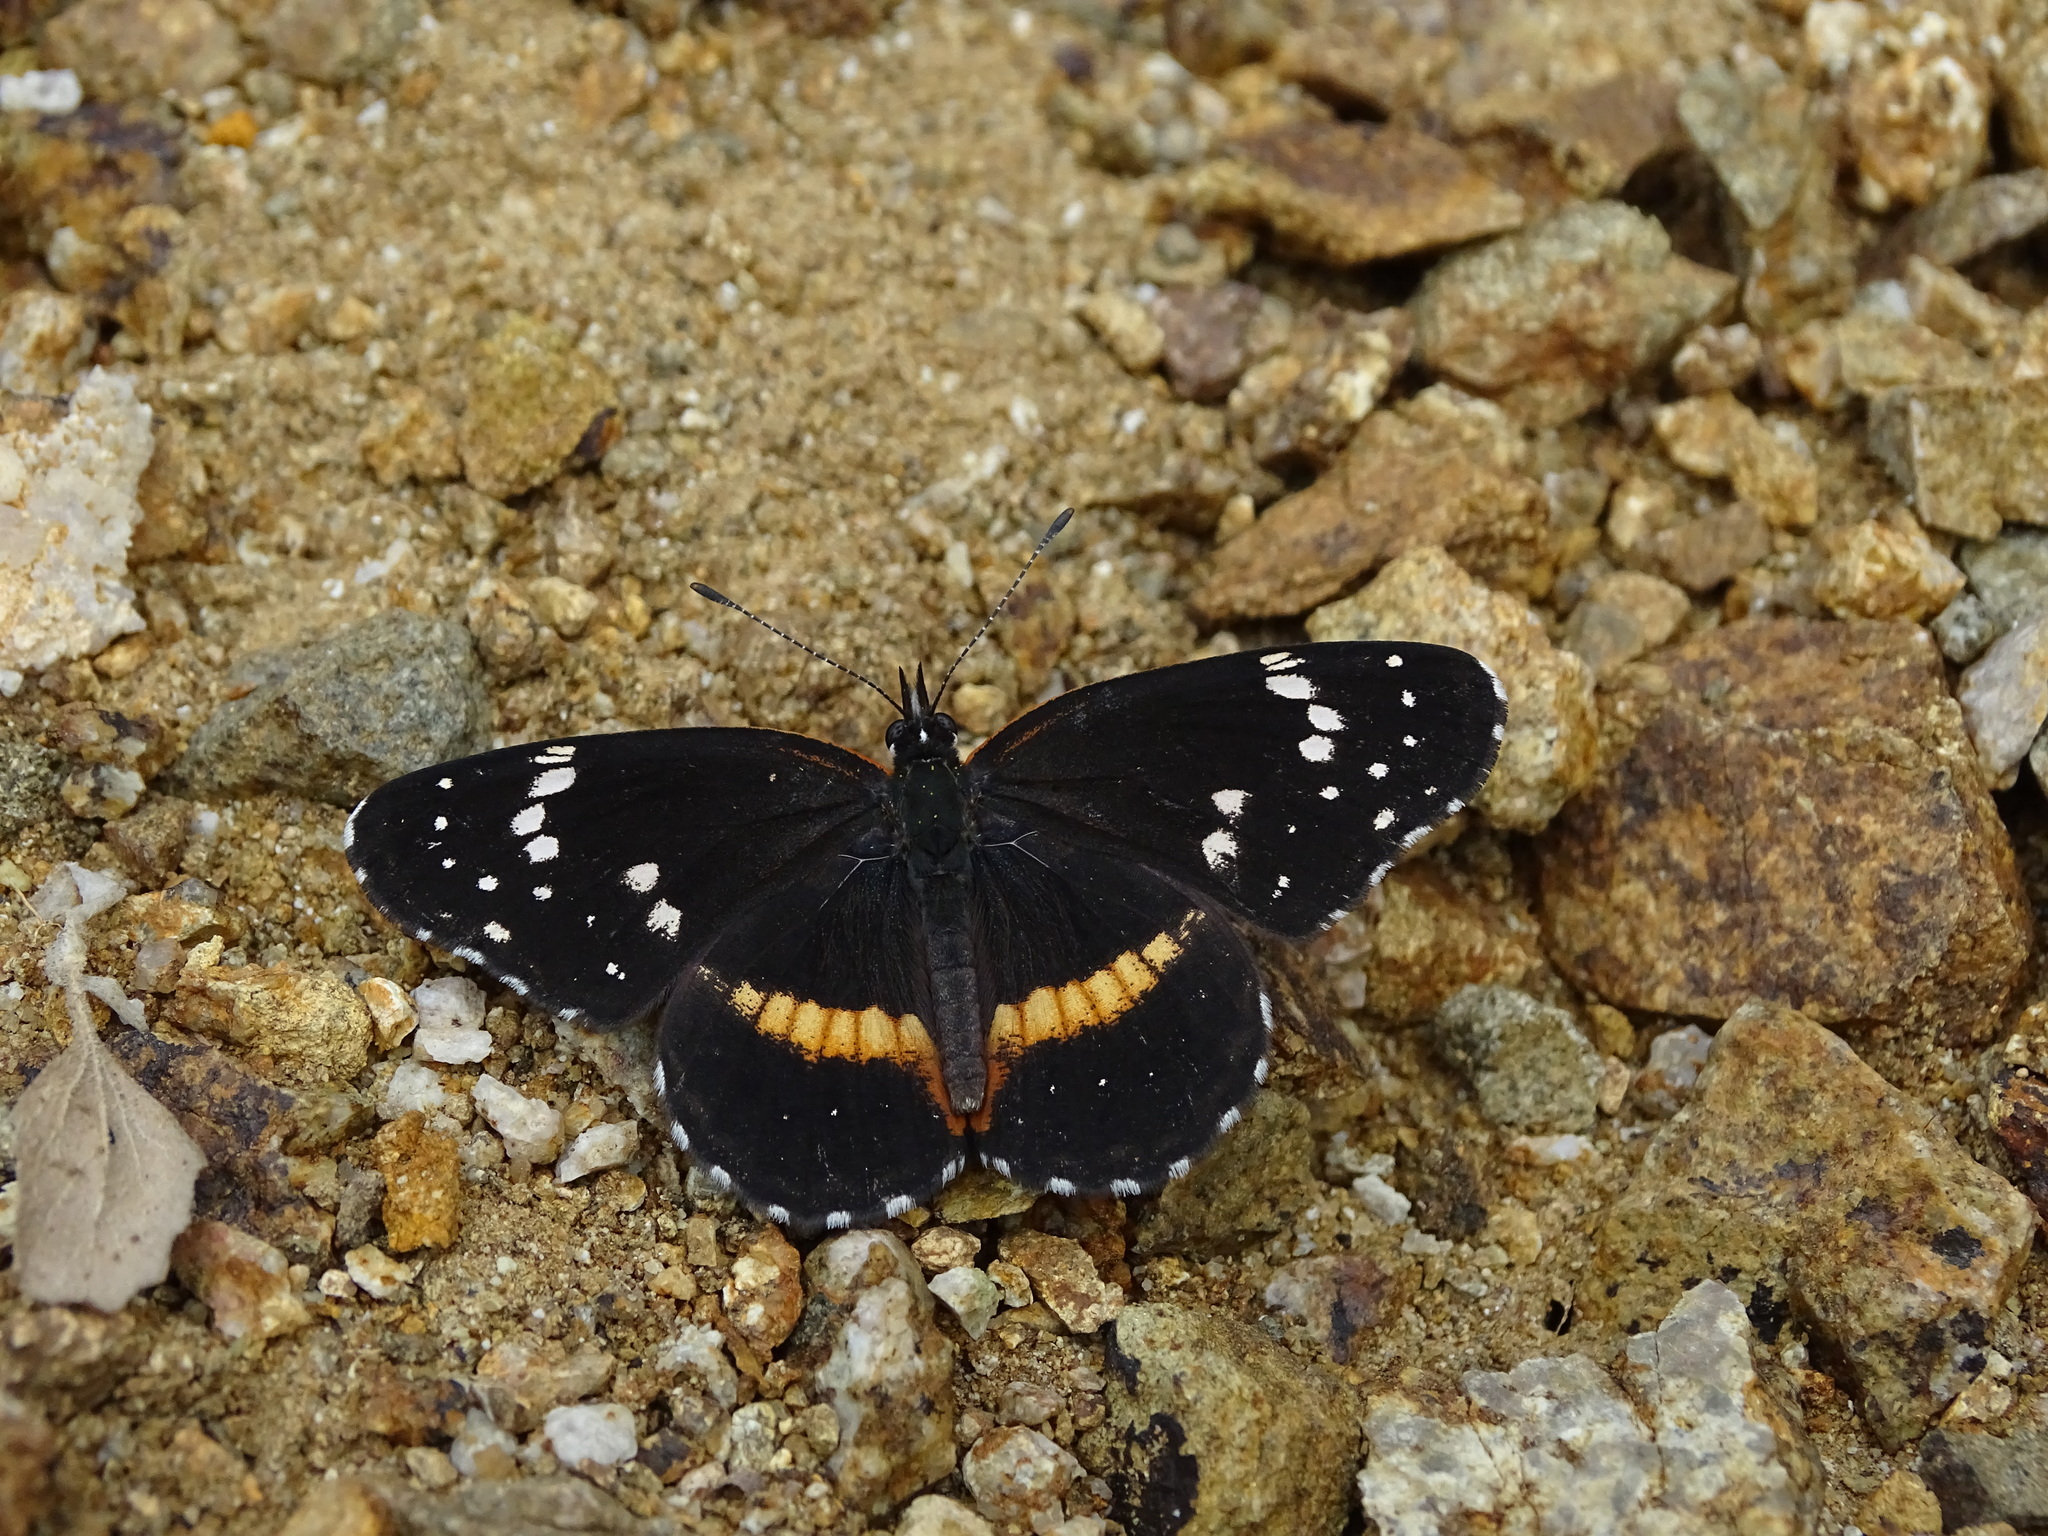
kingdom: Animalia
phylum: Arthropoda
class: Insecta
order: Lepidoptera
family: Nymphalidae
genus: Chlosyne
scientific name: Chlosyne lacinia
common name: Bordered patch
